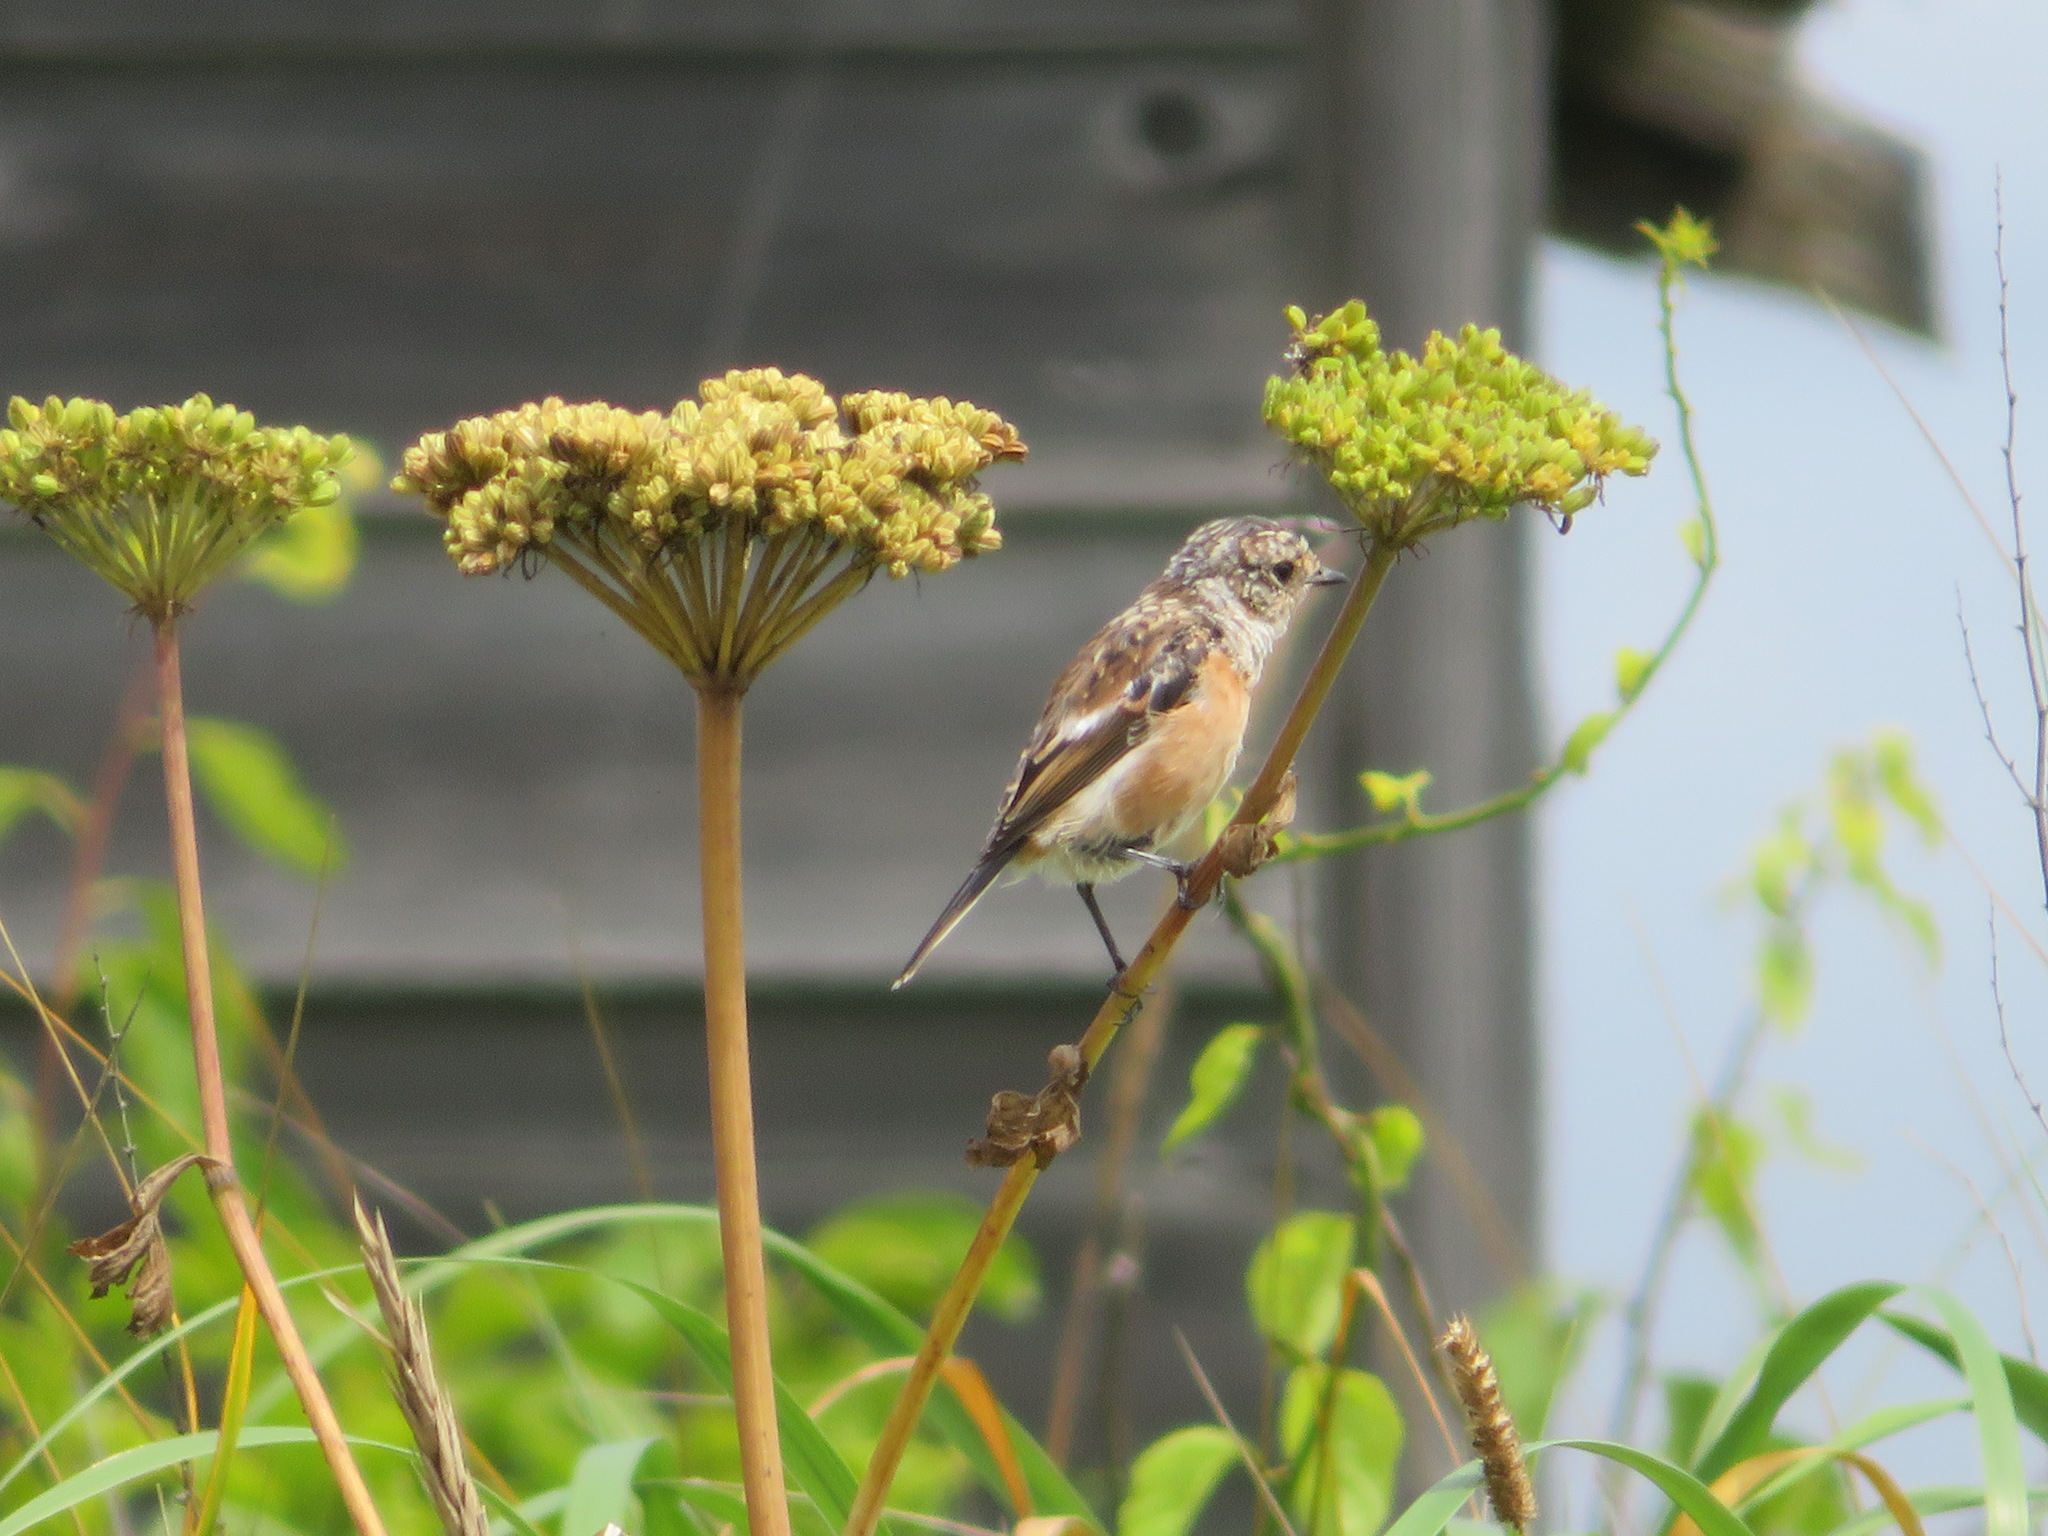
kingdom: Animalia
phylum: Chordata
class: Aves
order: Passeriformes
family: Muscicapidae
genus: Saxicola
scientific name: Saxicola stejnegeri
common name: Stejneger's stonechat
